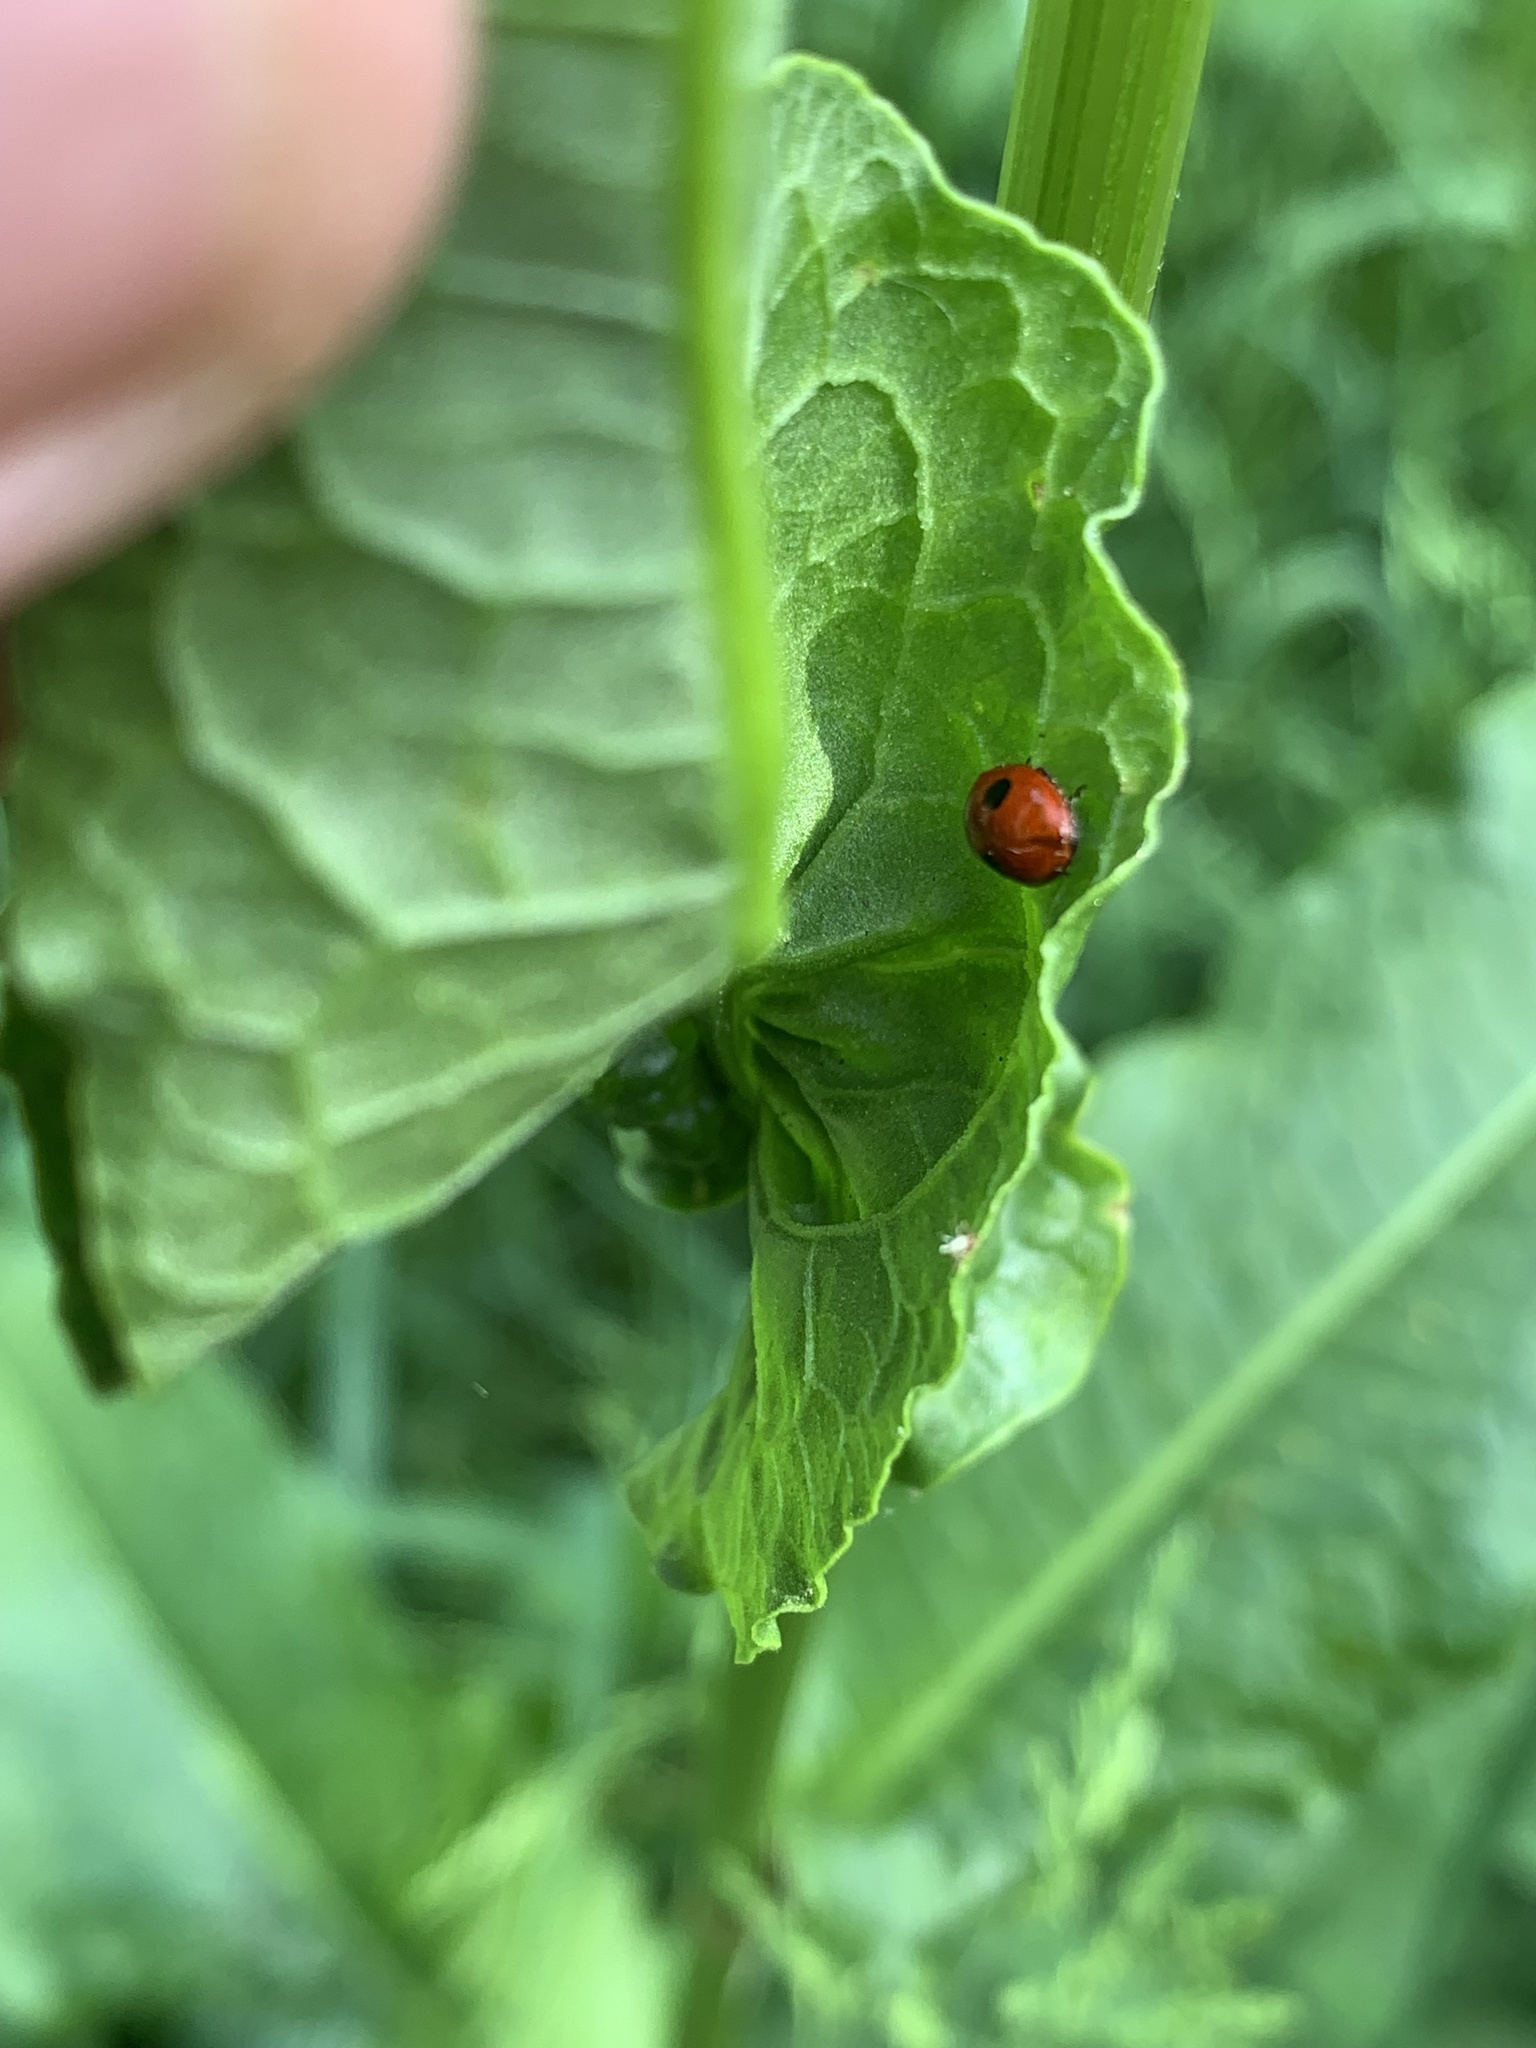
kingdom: Animalia
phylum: Arthropoda
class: Insecta
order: Coleoptera
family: Coccinellidae
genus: Adalia
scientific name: Adalia bipunctata
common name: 2-spot ladybird
